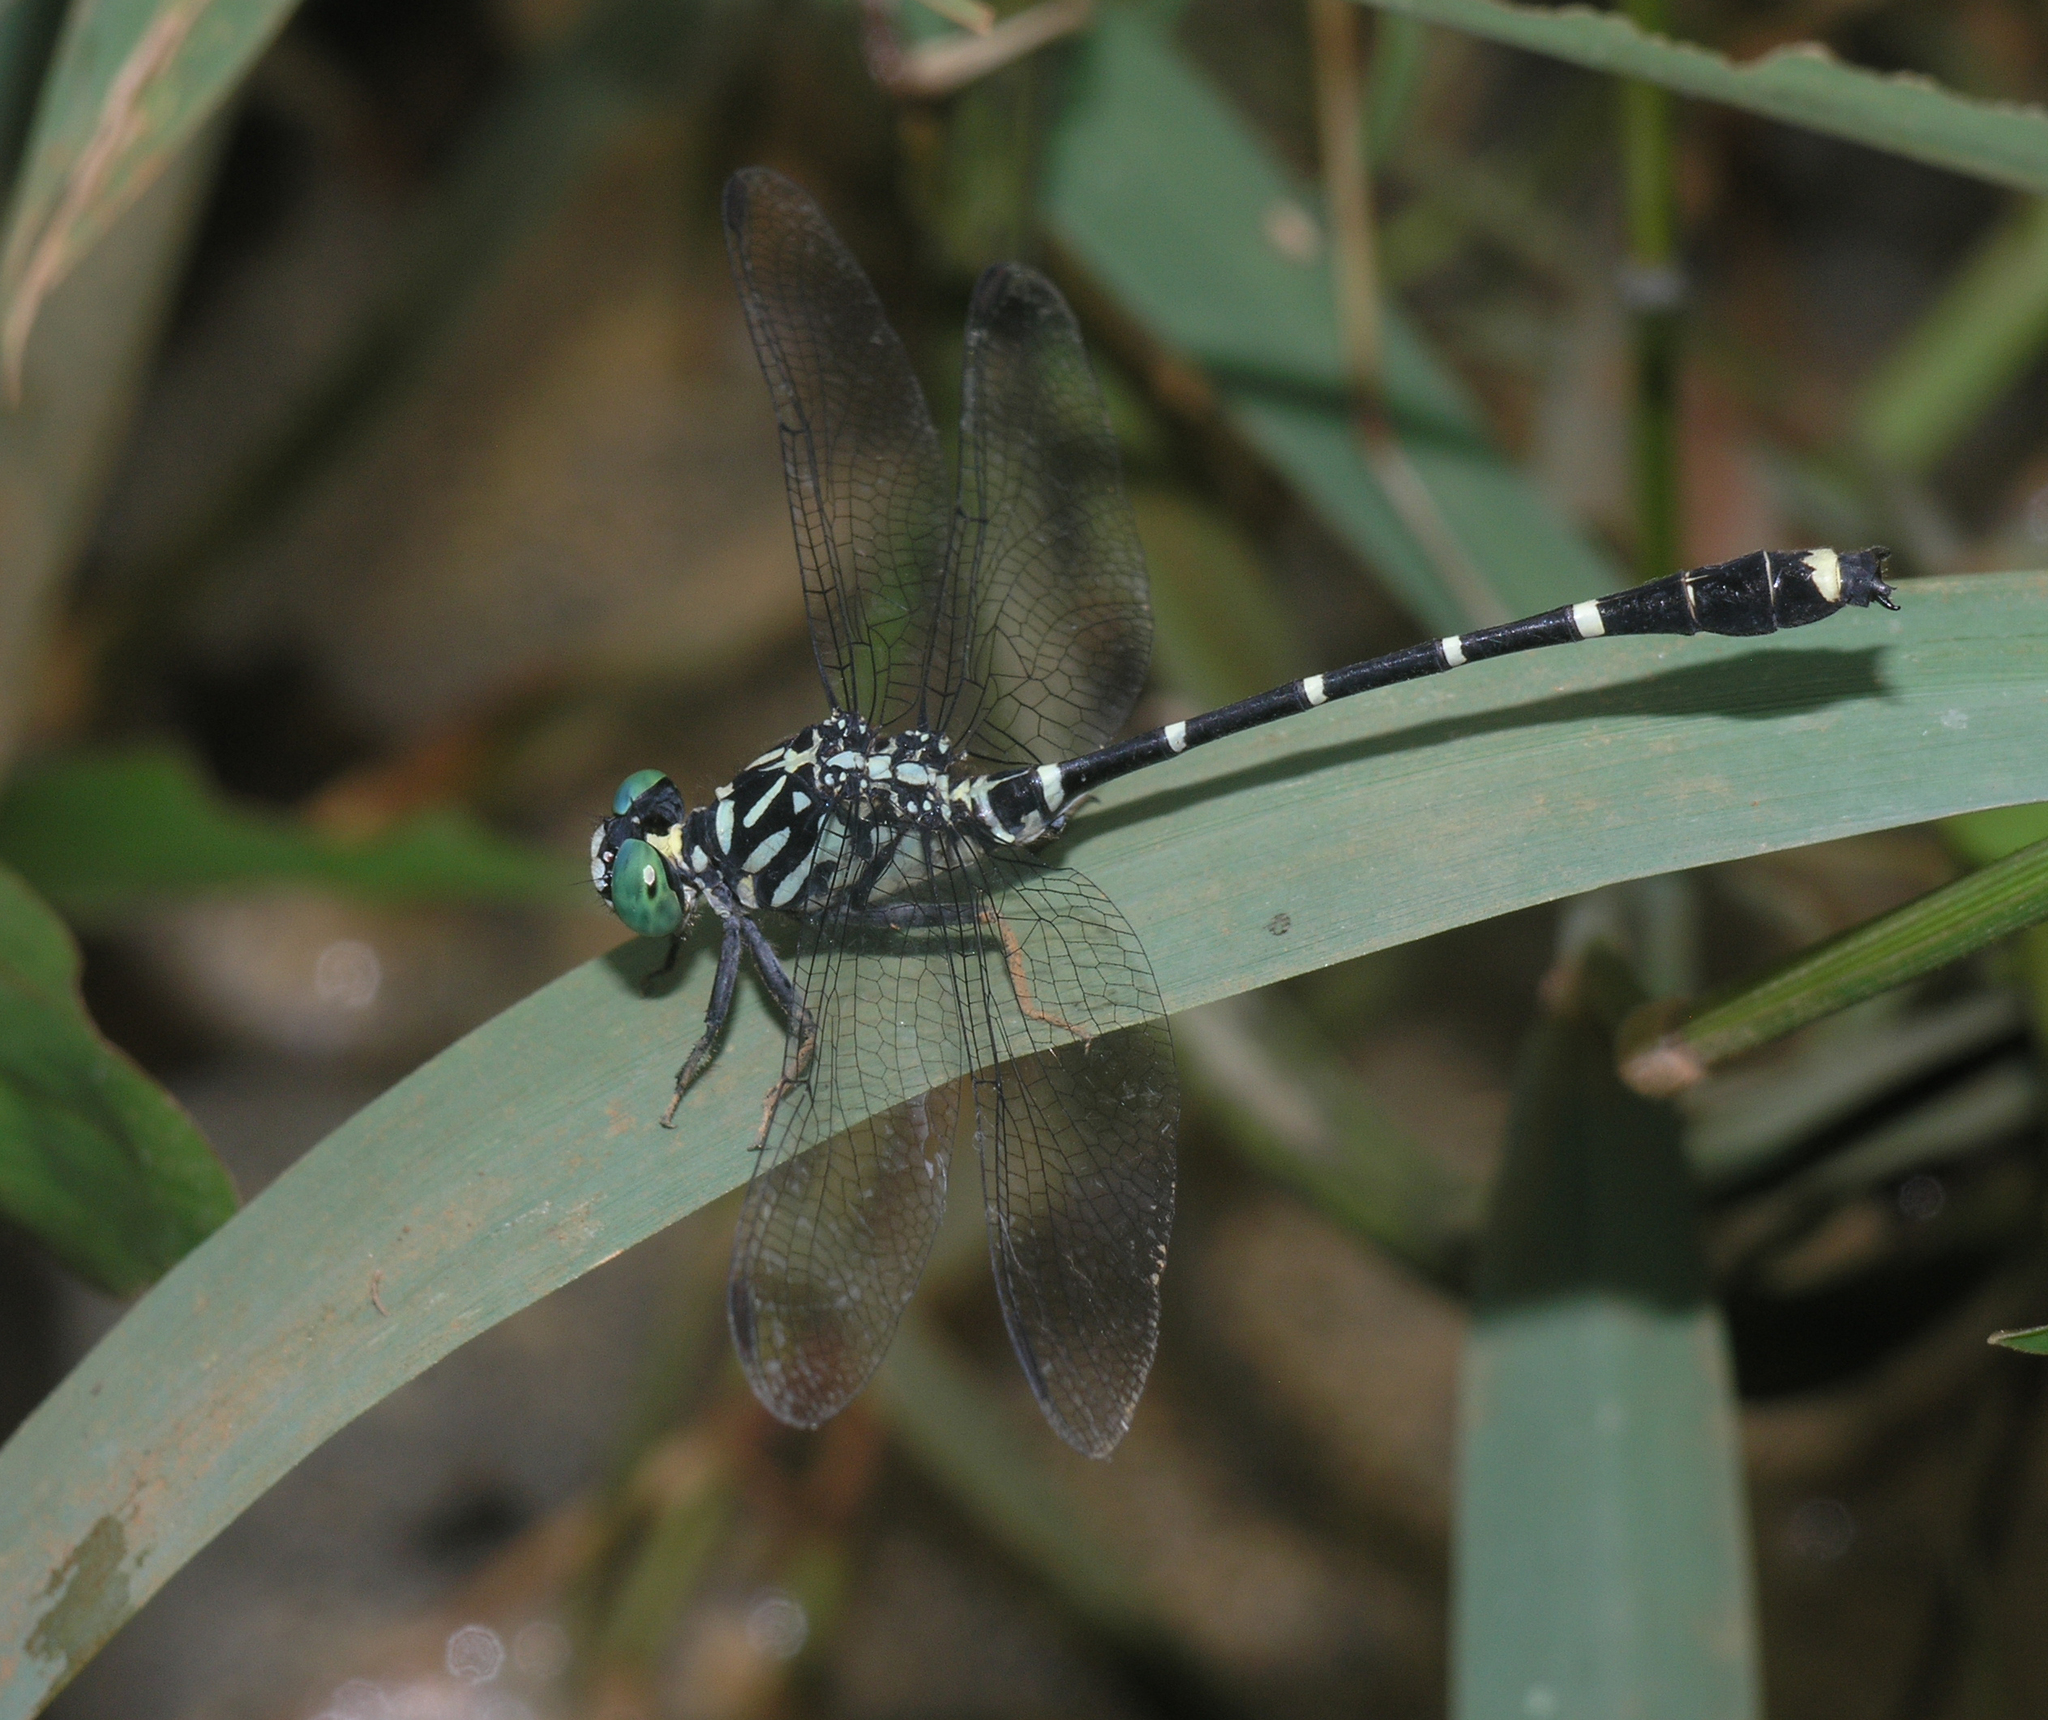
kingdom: Animalia
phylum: Arthropoda
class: Insecta
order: Odonata
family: Gomphidae
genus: Burmagomphus
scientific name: Burmagomphus asahinai
